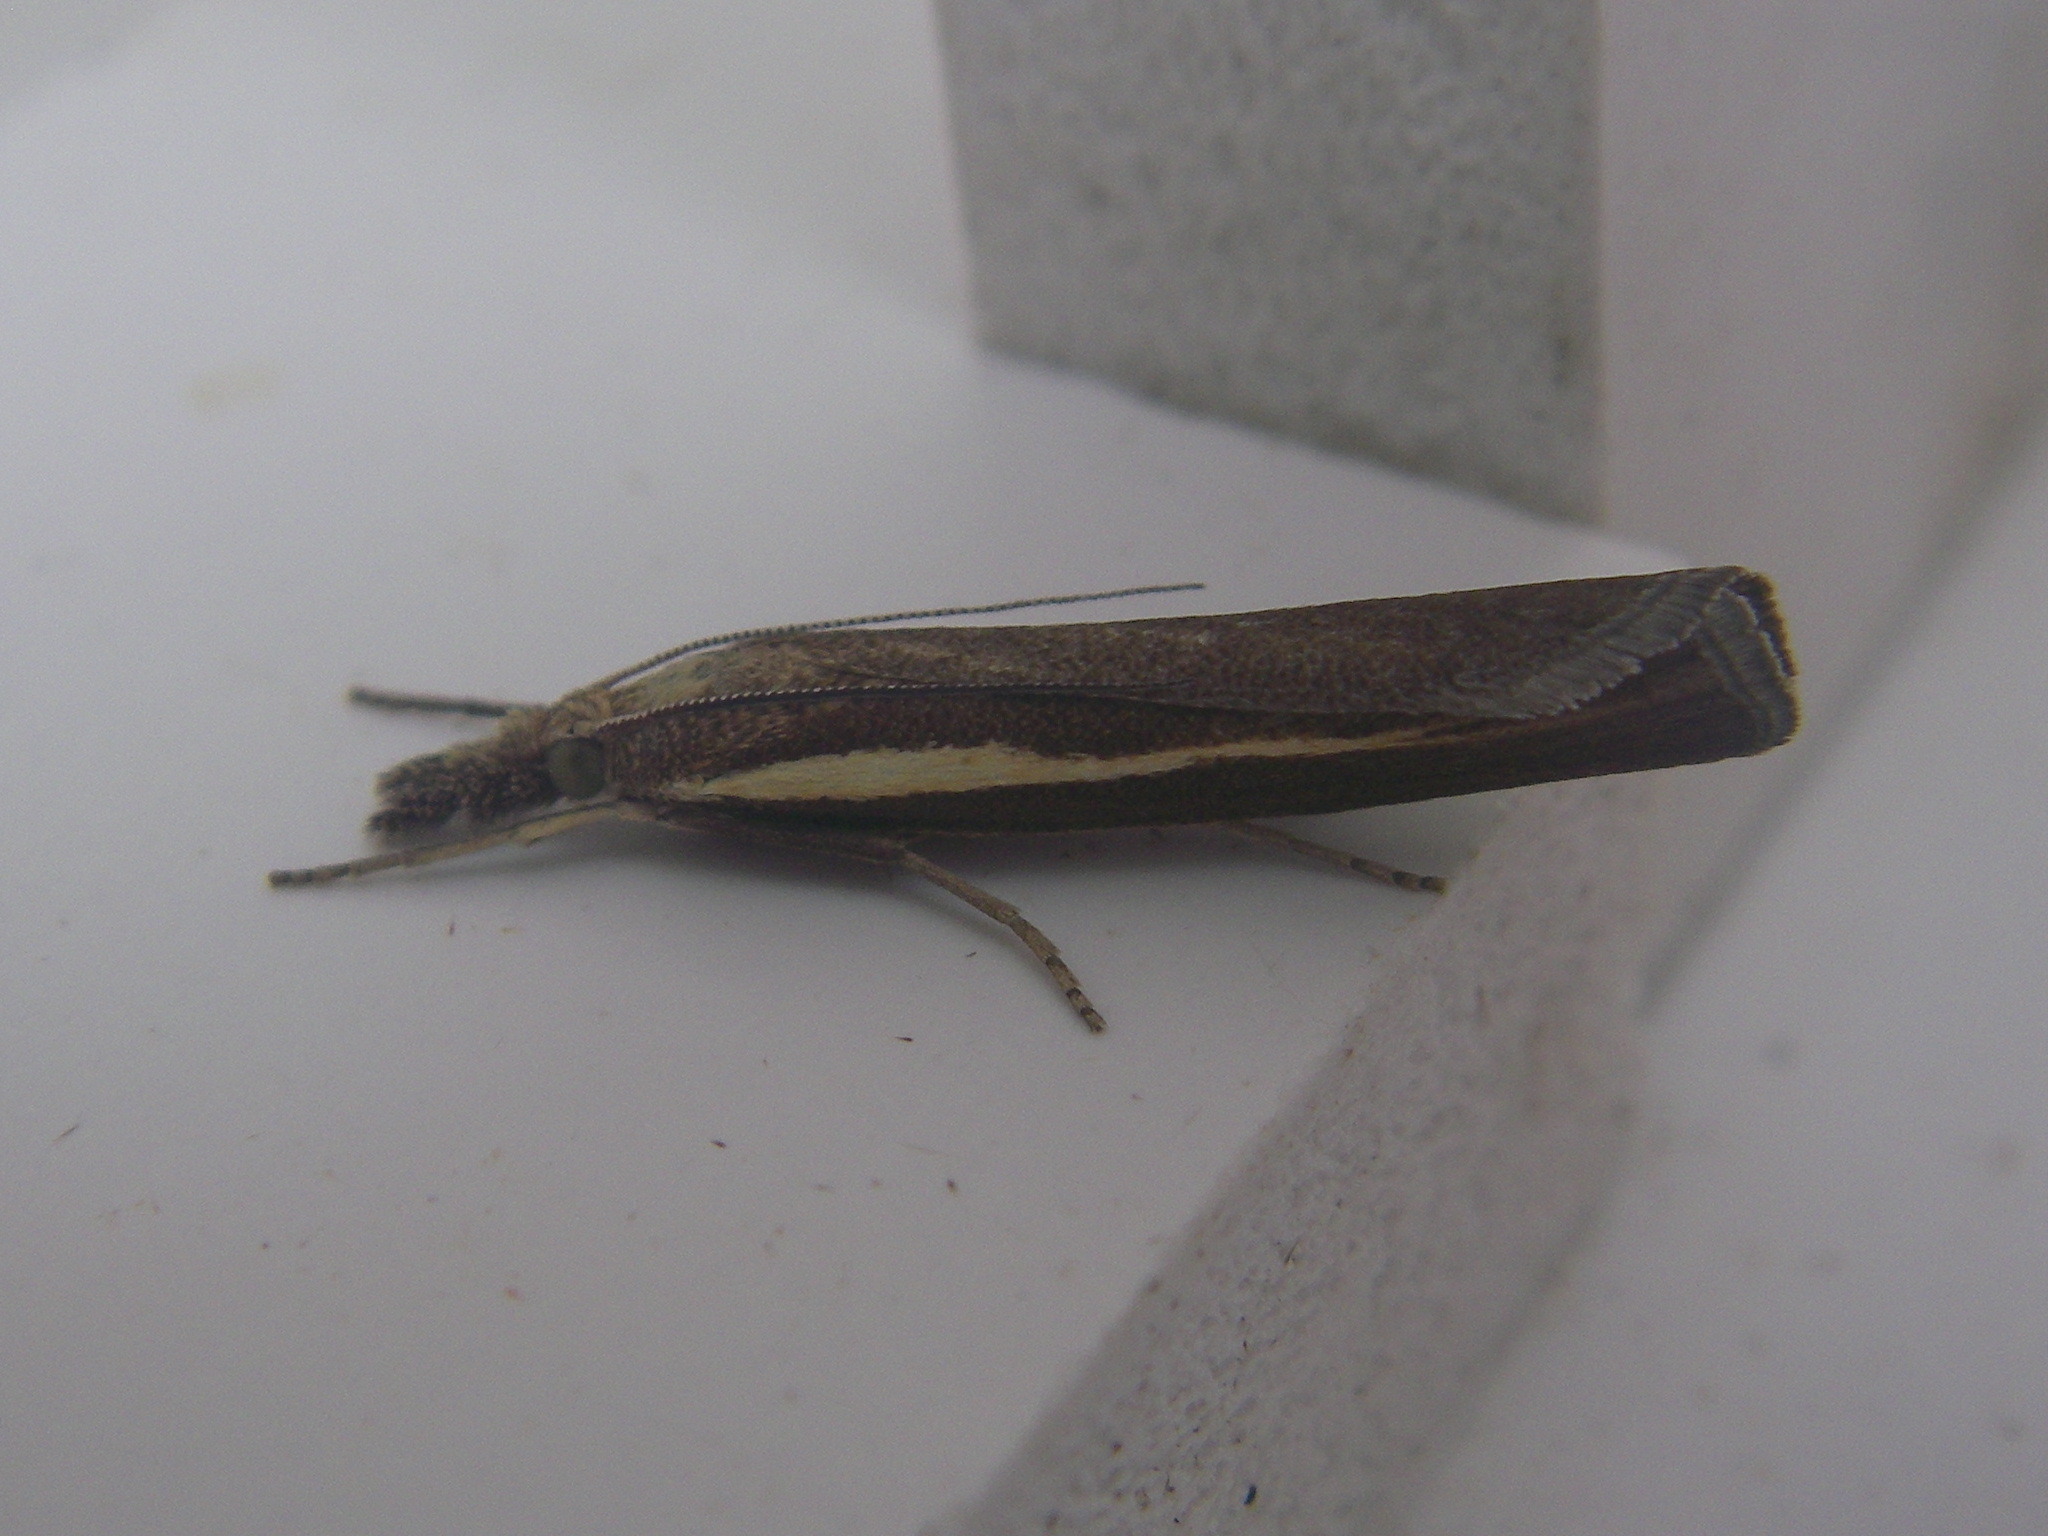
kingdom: Animalia
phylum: Arthropoda
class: Insecta
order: Lepidoptera
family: Crambidae
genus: Agriphila
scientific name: Agriphila tristellus
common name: Common grass-veneer
